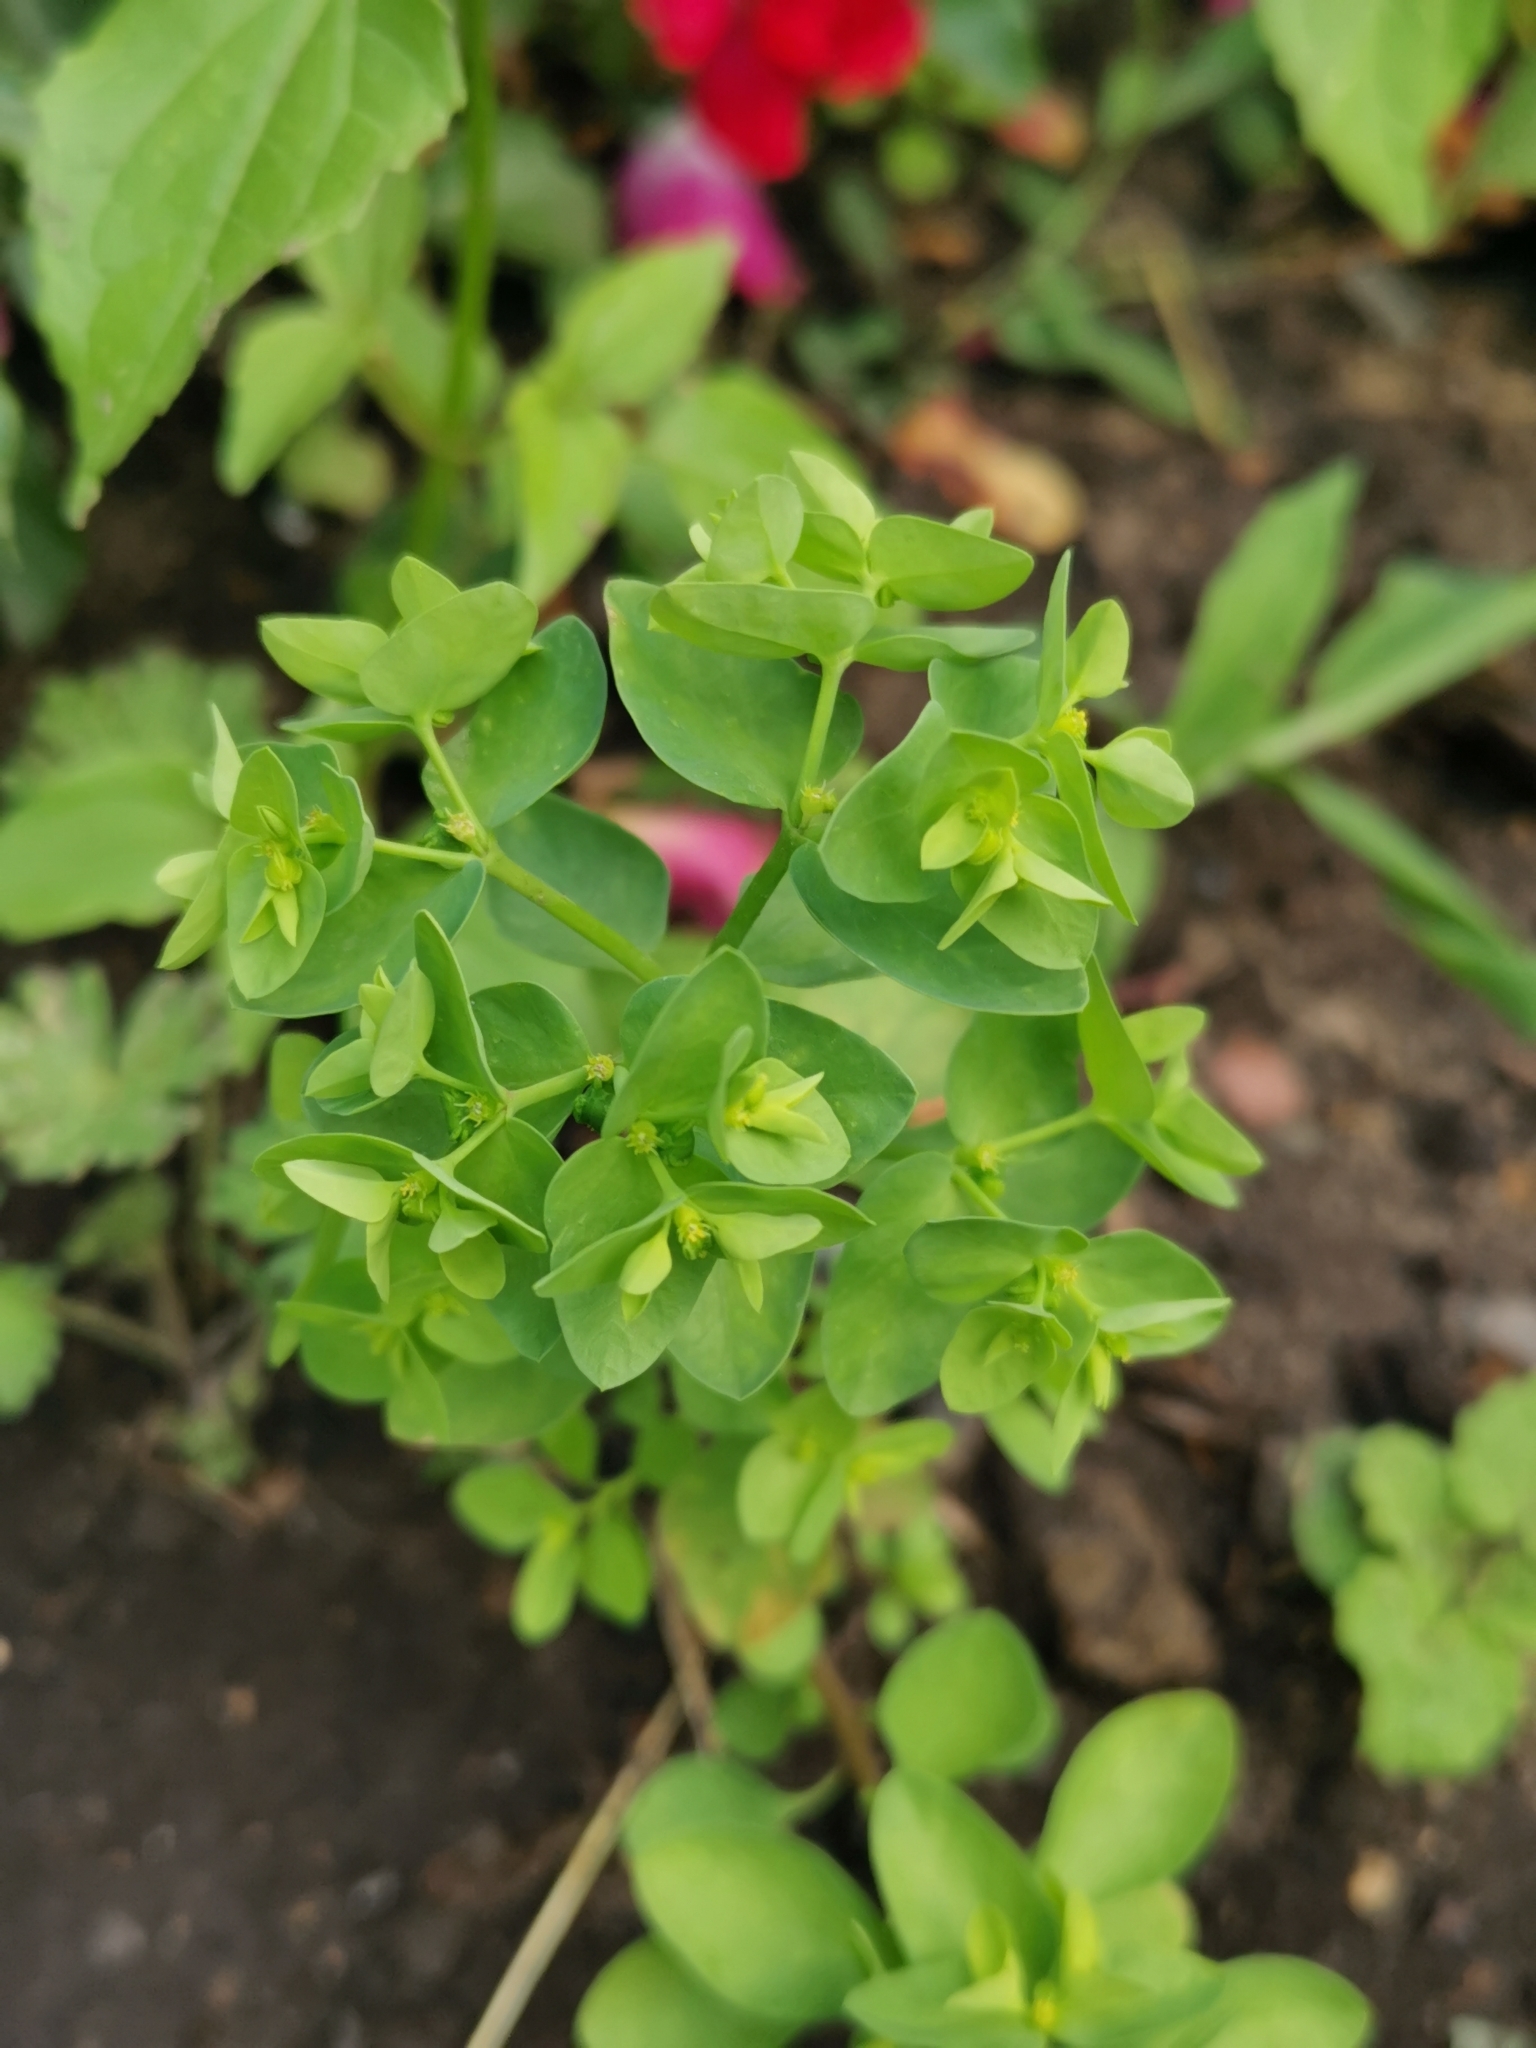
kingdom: Plantae
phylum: Tracheophyta
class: Magnoliopsida
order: Malpighiales
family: Euphorbiaceae
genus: Euphorbia
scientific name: Euphorbia peplus
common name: Petty spurge
